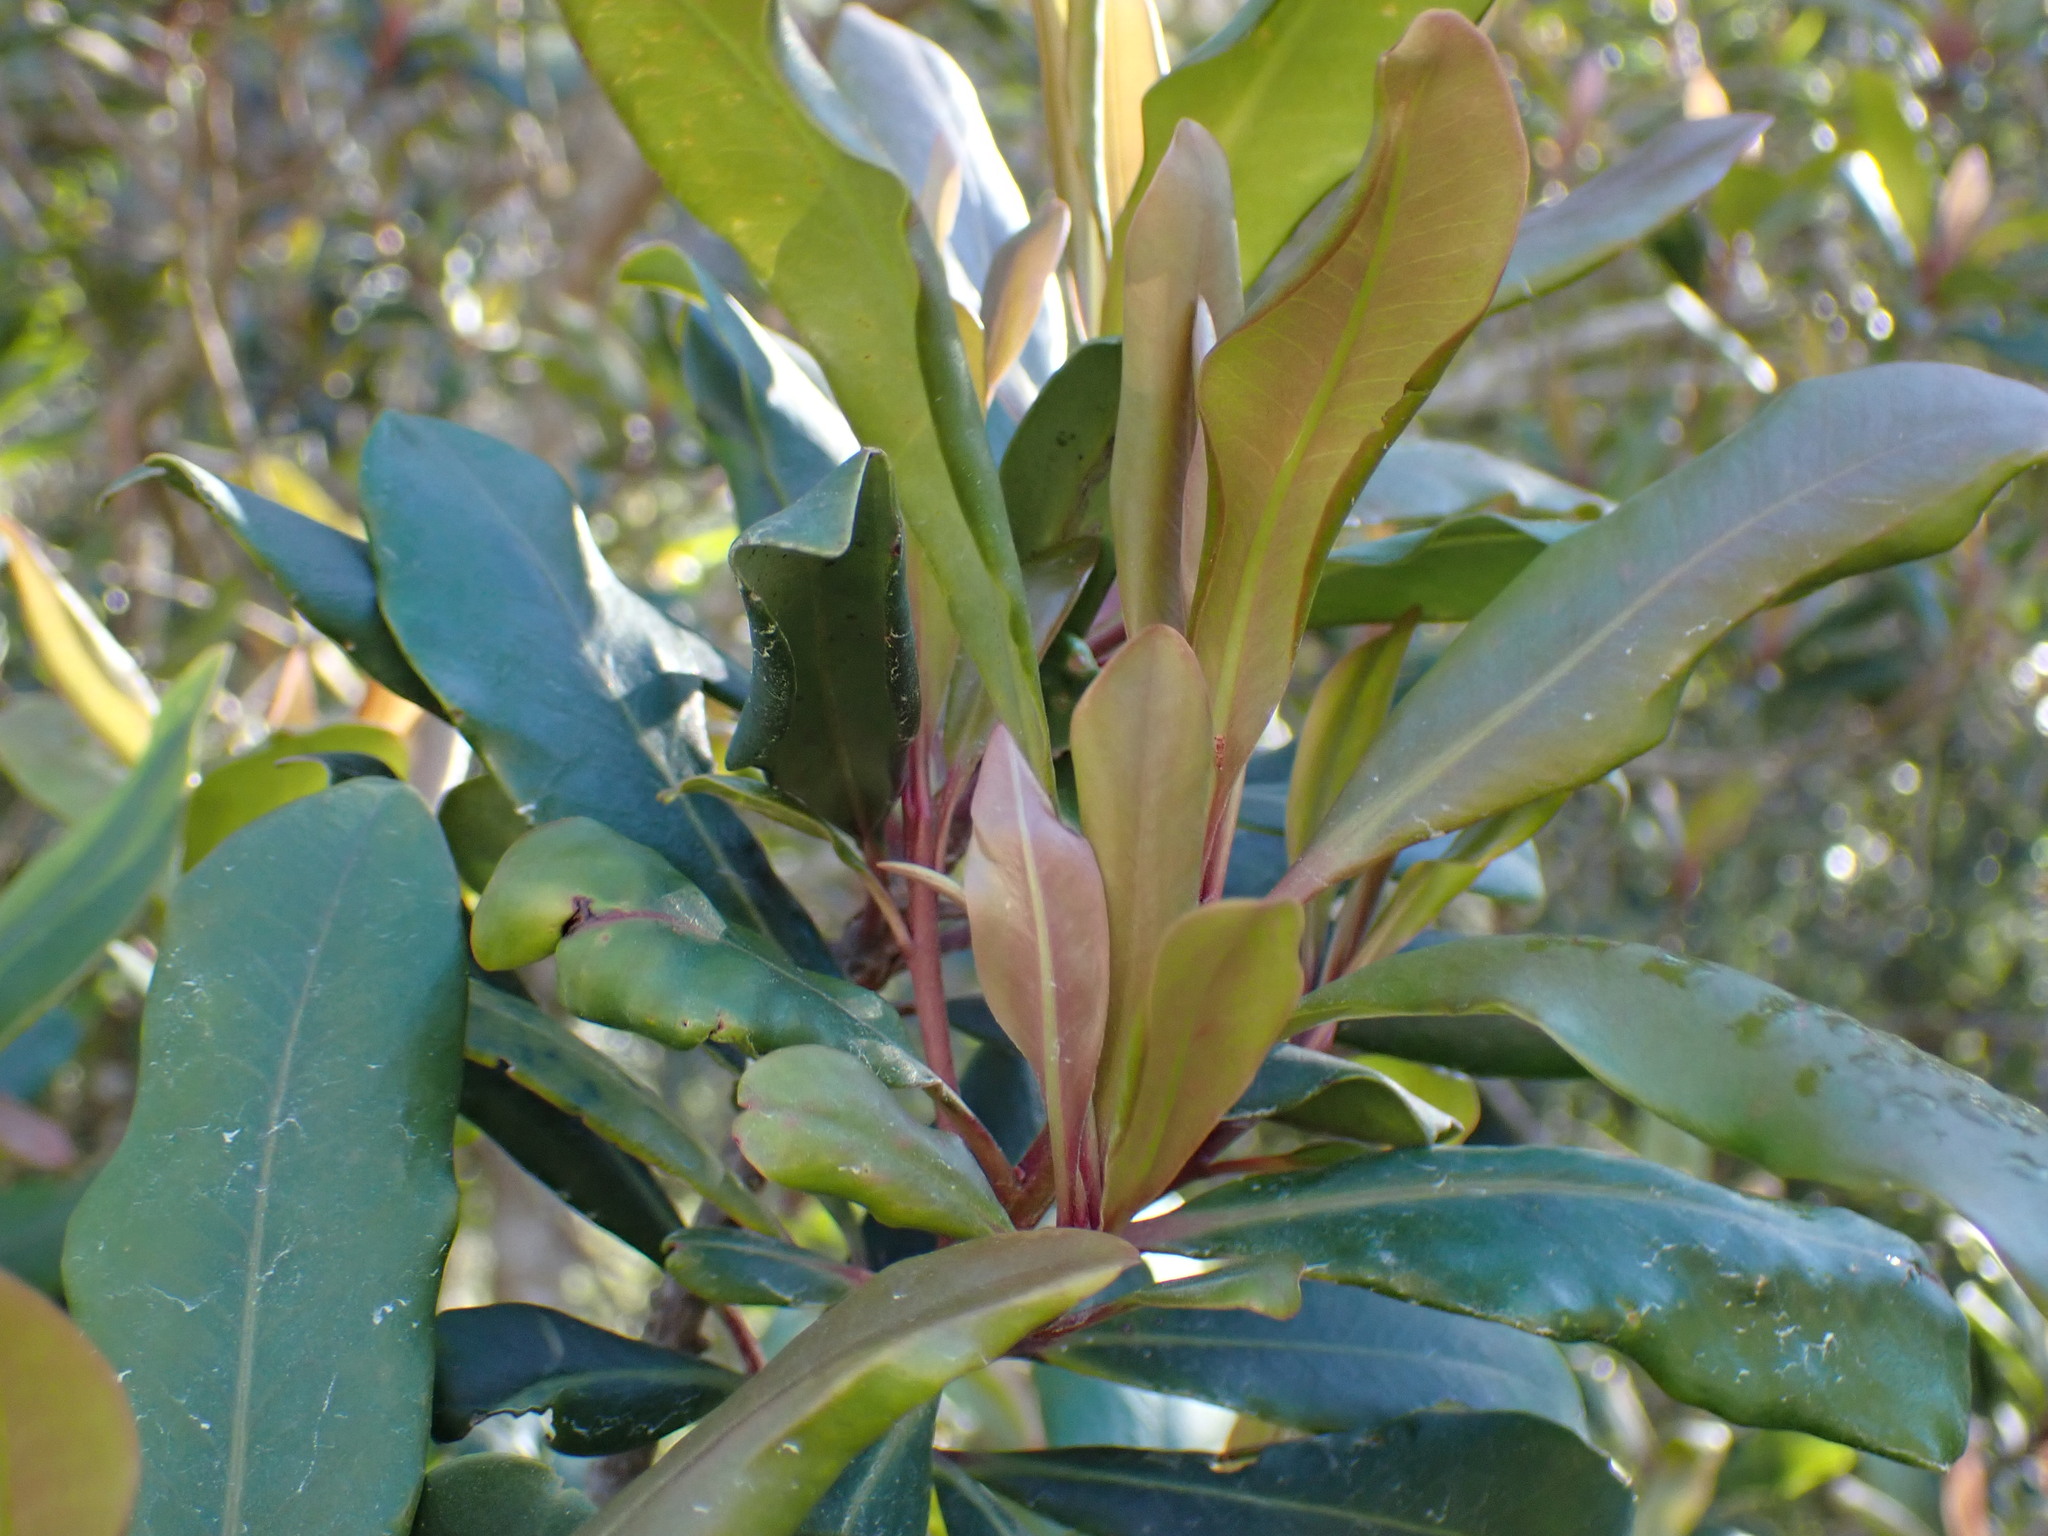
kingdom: Plantae
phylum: Tracheophyta
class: Magnoliopsida
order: Ericales
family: Primulaceae
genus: Myrsine
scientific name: Myrsine melanophloeos
